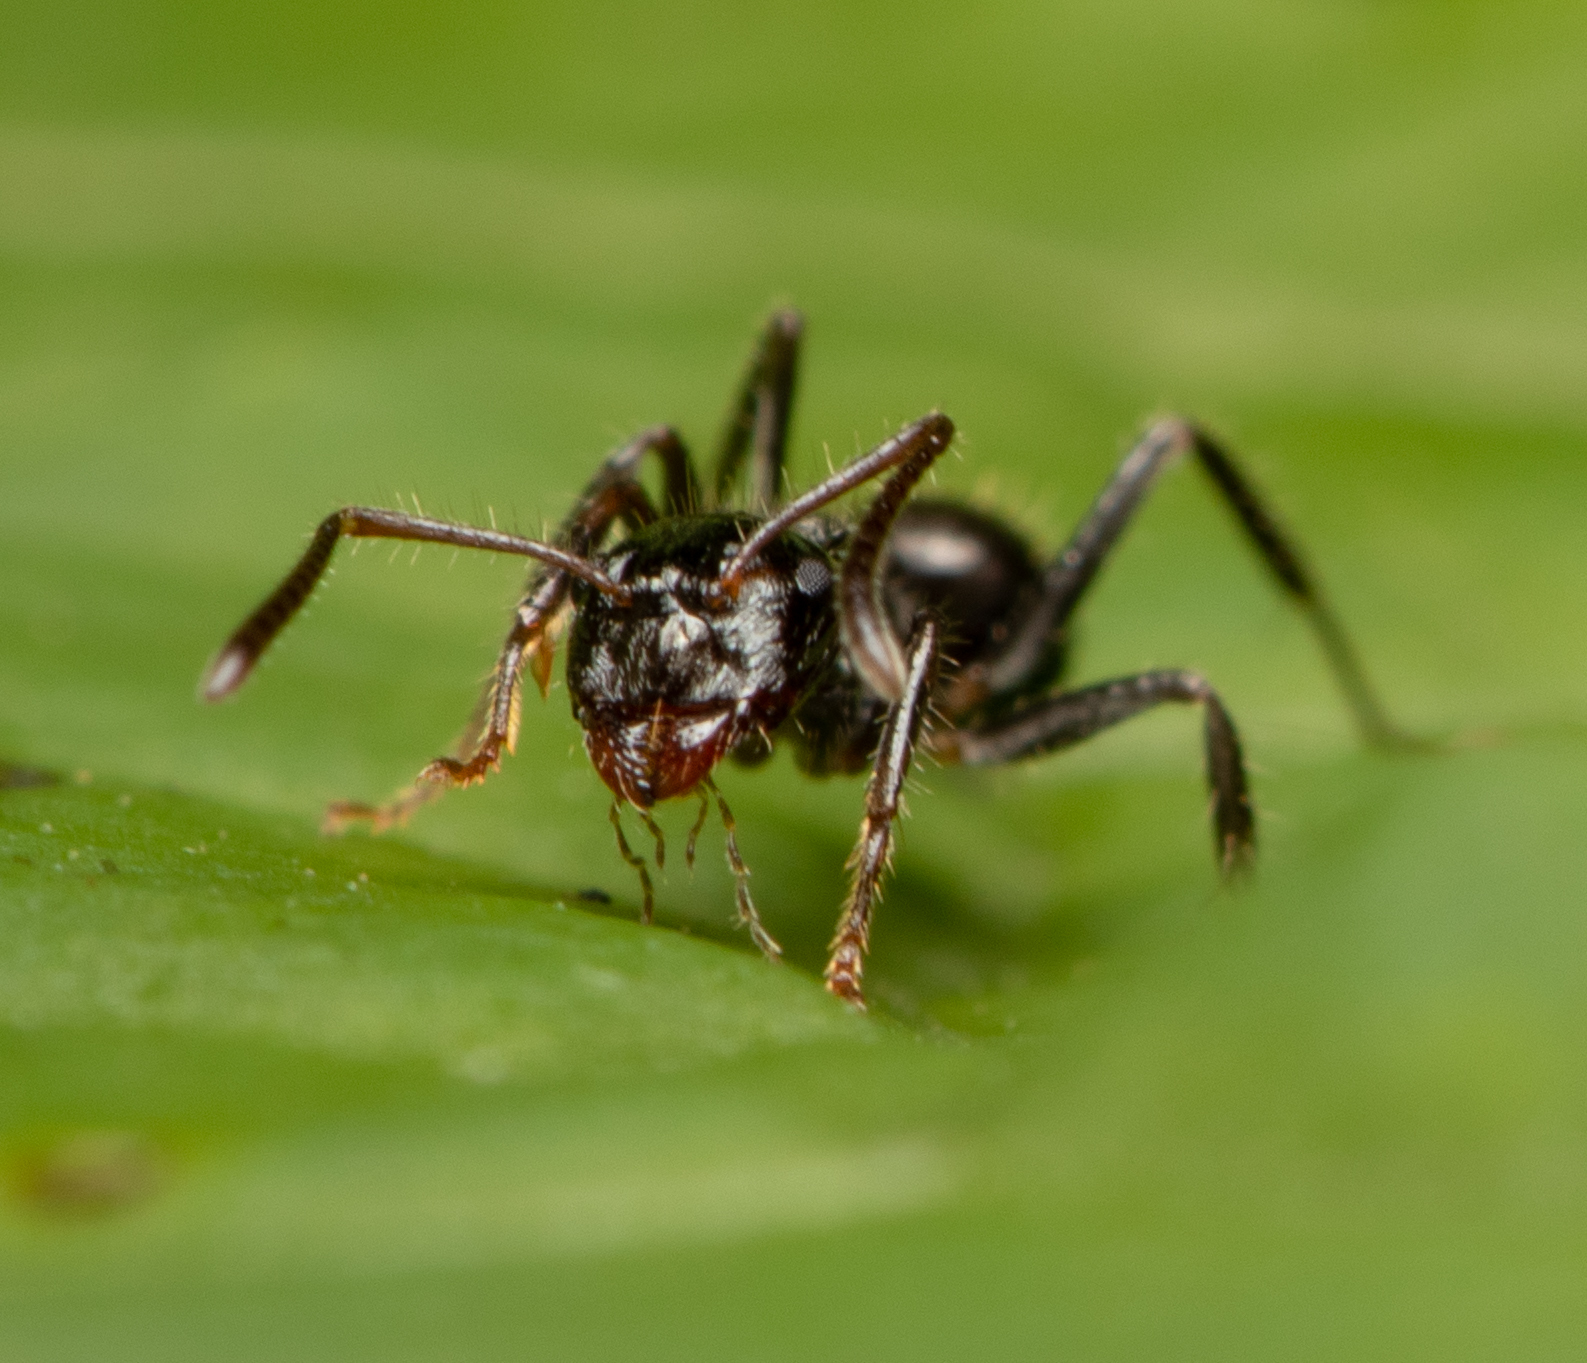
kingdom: Animalia
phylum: Arthropoda
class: Insecta
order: Hymenoptera
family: Formicidae
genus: Notoncus
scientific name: Notoncus capitatus
